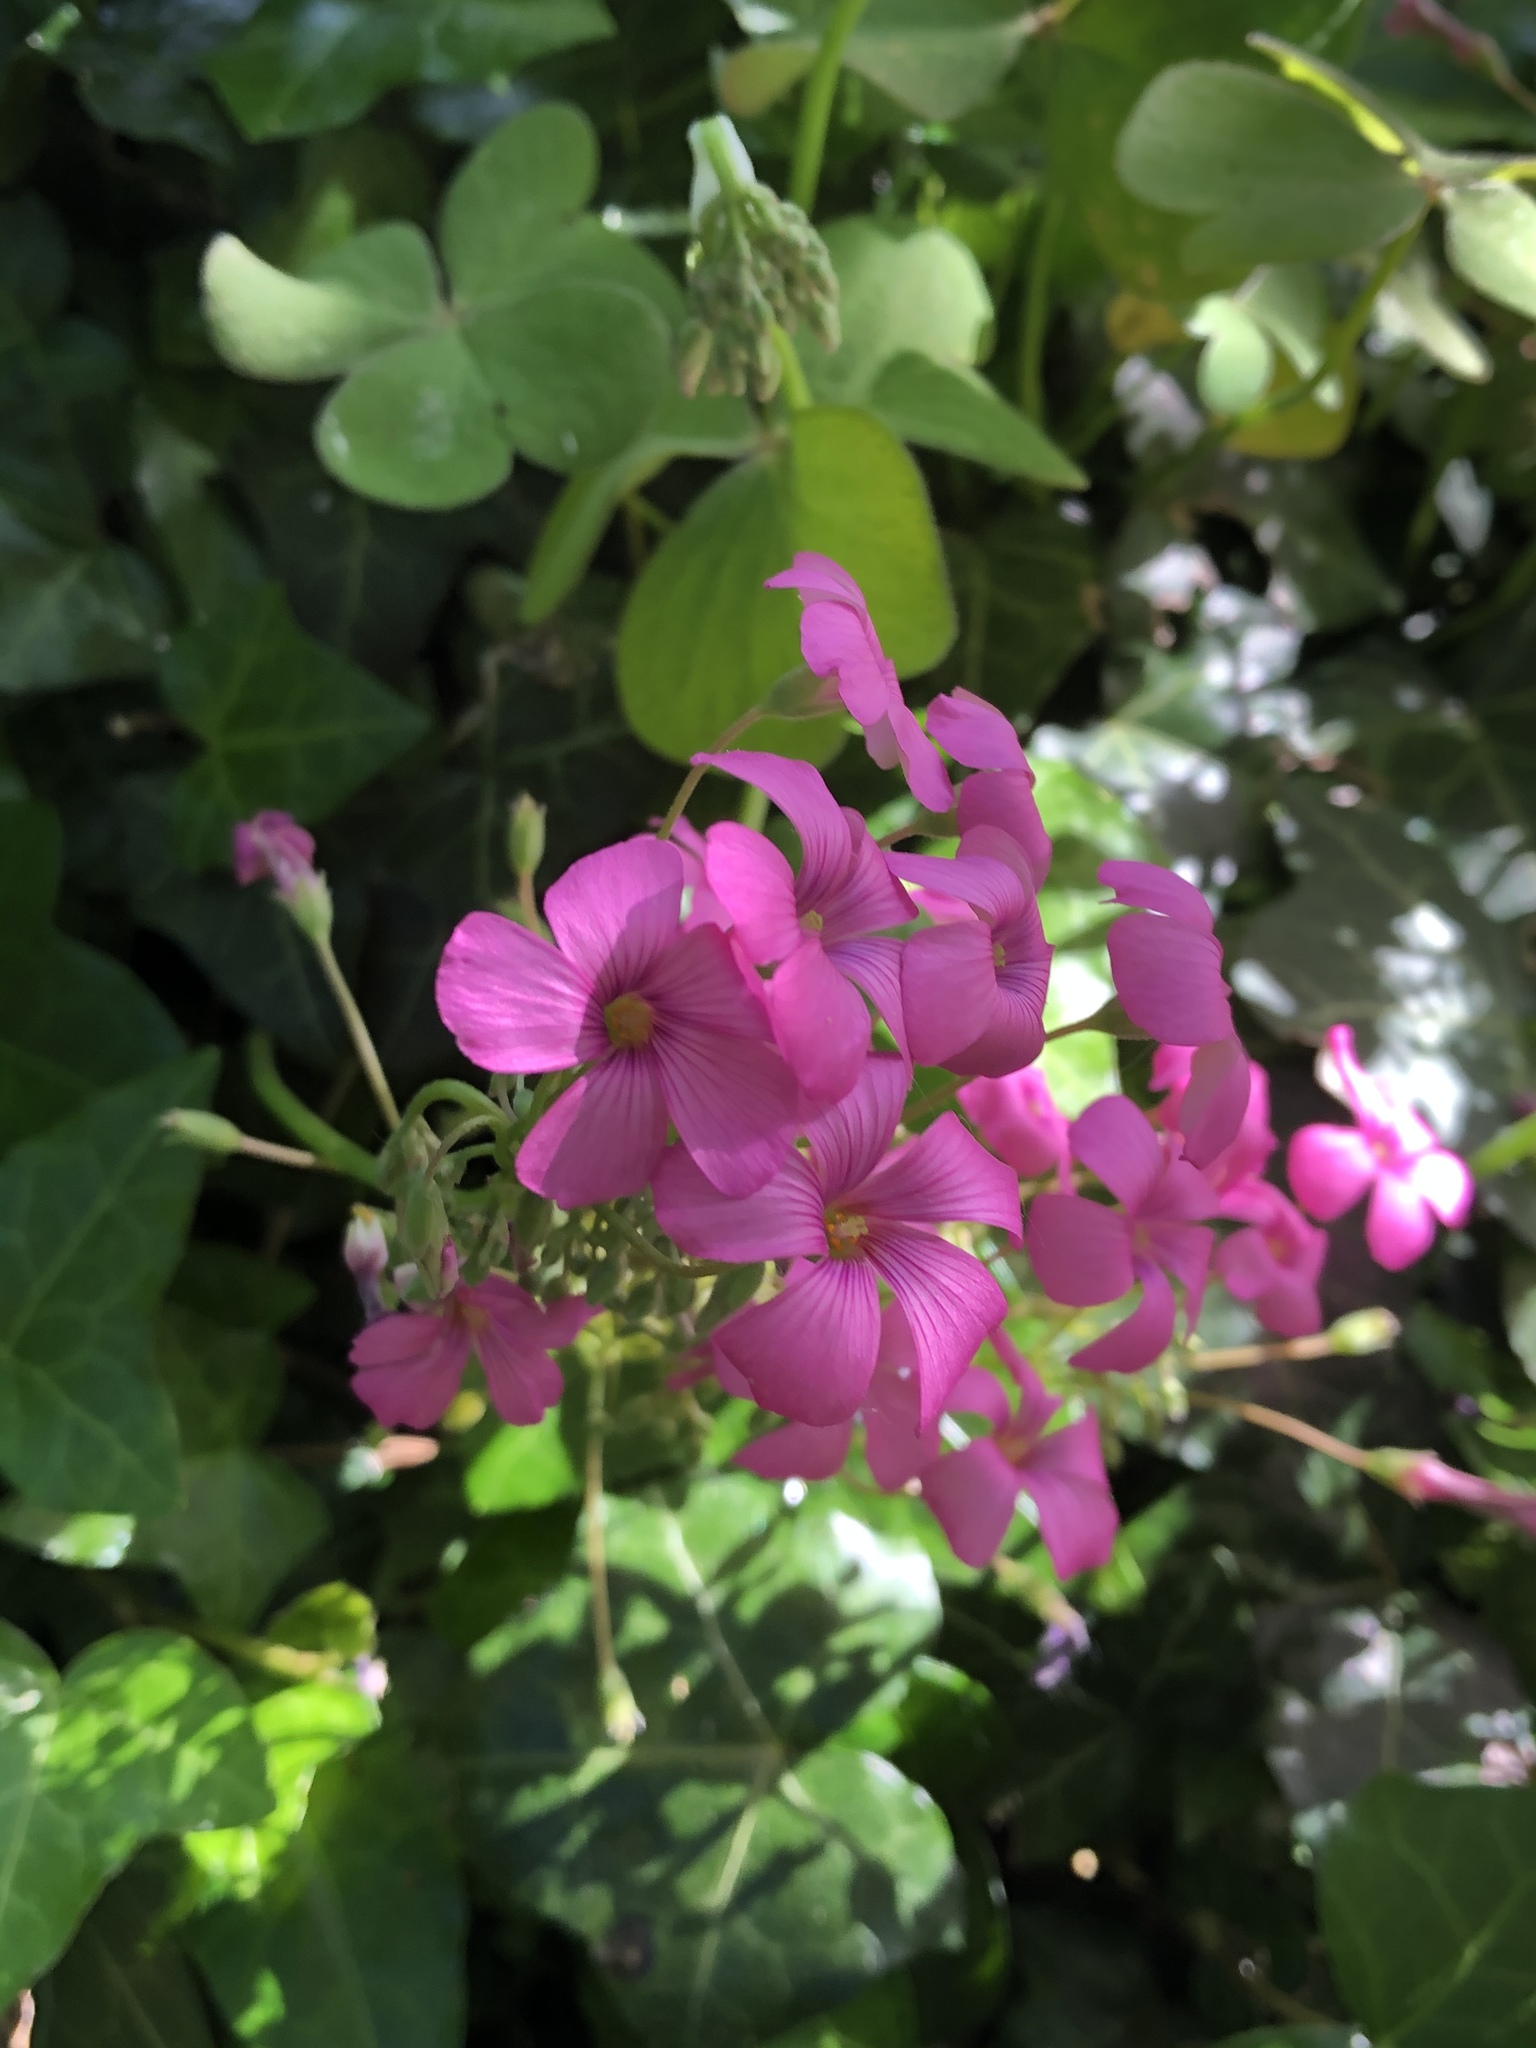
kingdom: Plantae
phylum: Tracheophyta
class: Magnoliopsida
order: Oxalidales
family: Oxalidaceae
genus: Oxalis
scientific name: Oxalis articulata
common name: Pink-sorrel
